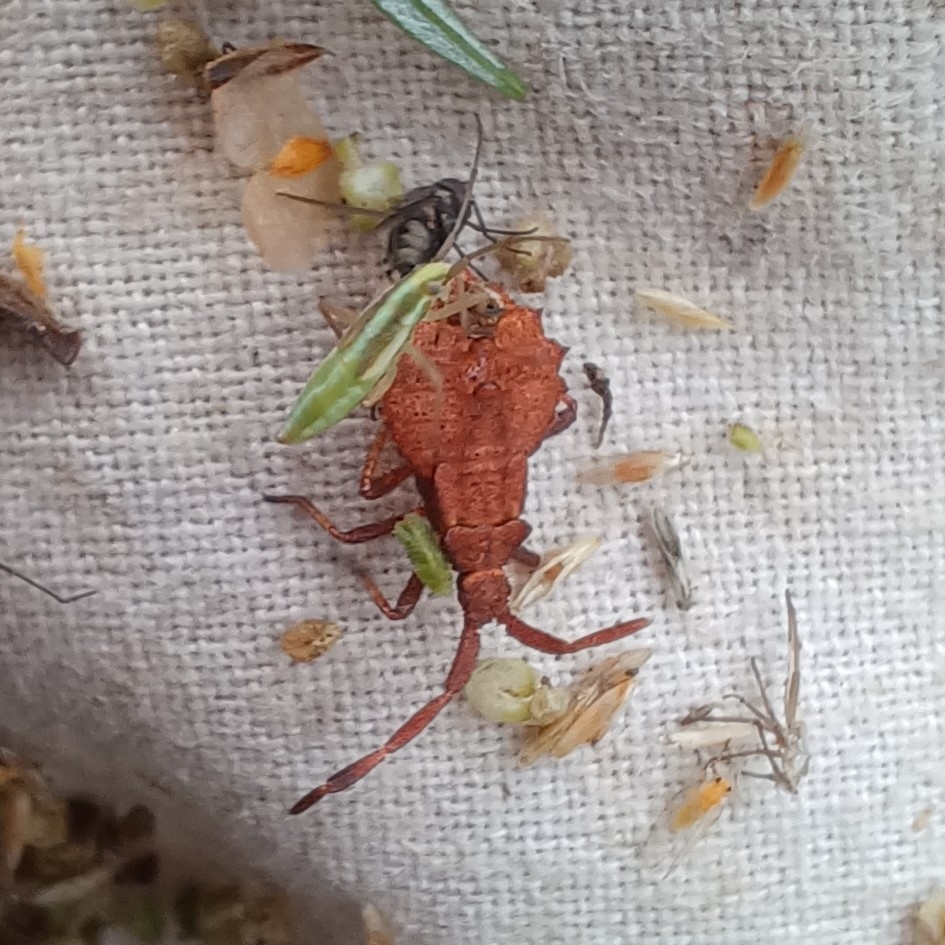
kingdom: Animalia
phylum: Arthropoda
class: Insecta
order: Hemiptera
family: Coreidae
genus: Coreus
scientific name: Coreus marginatus
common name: Dock bug
